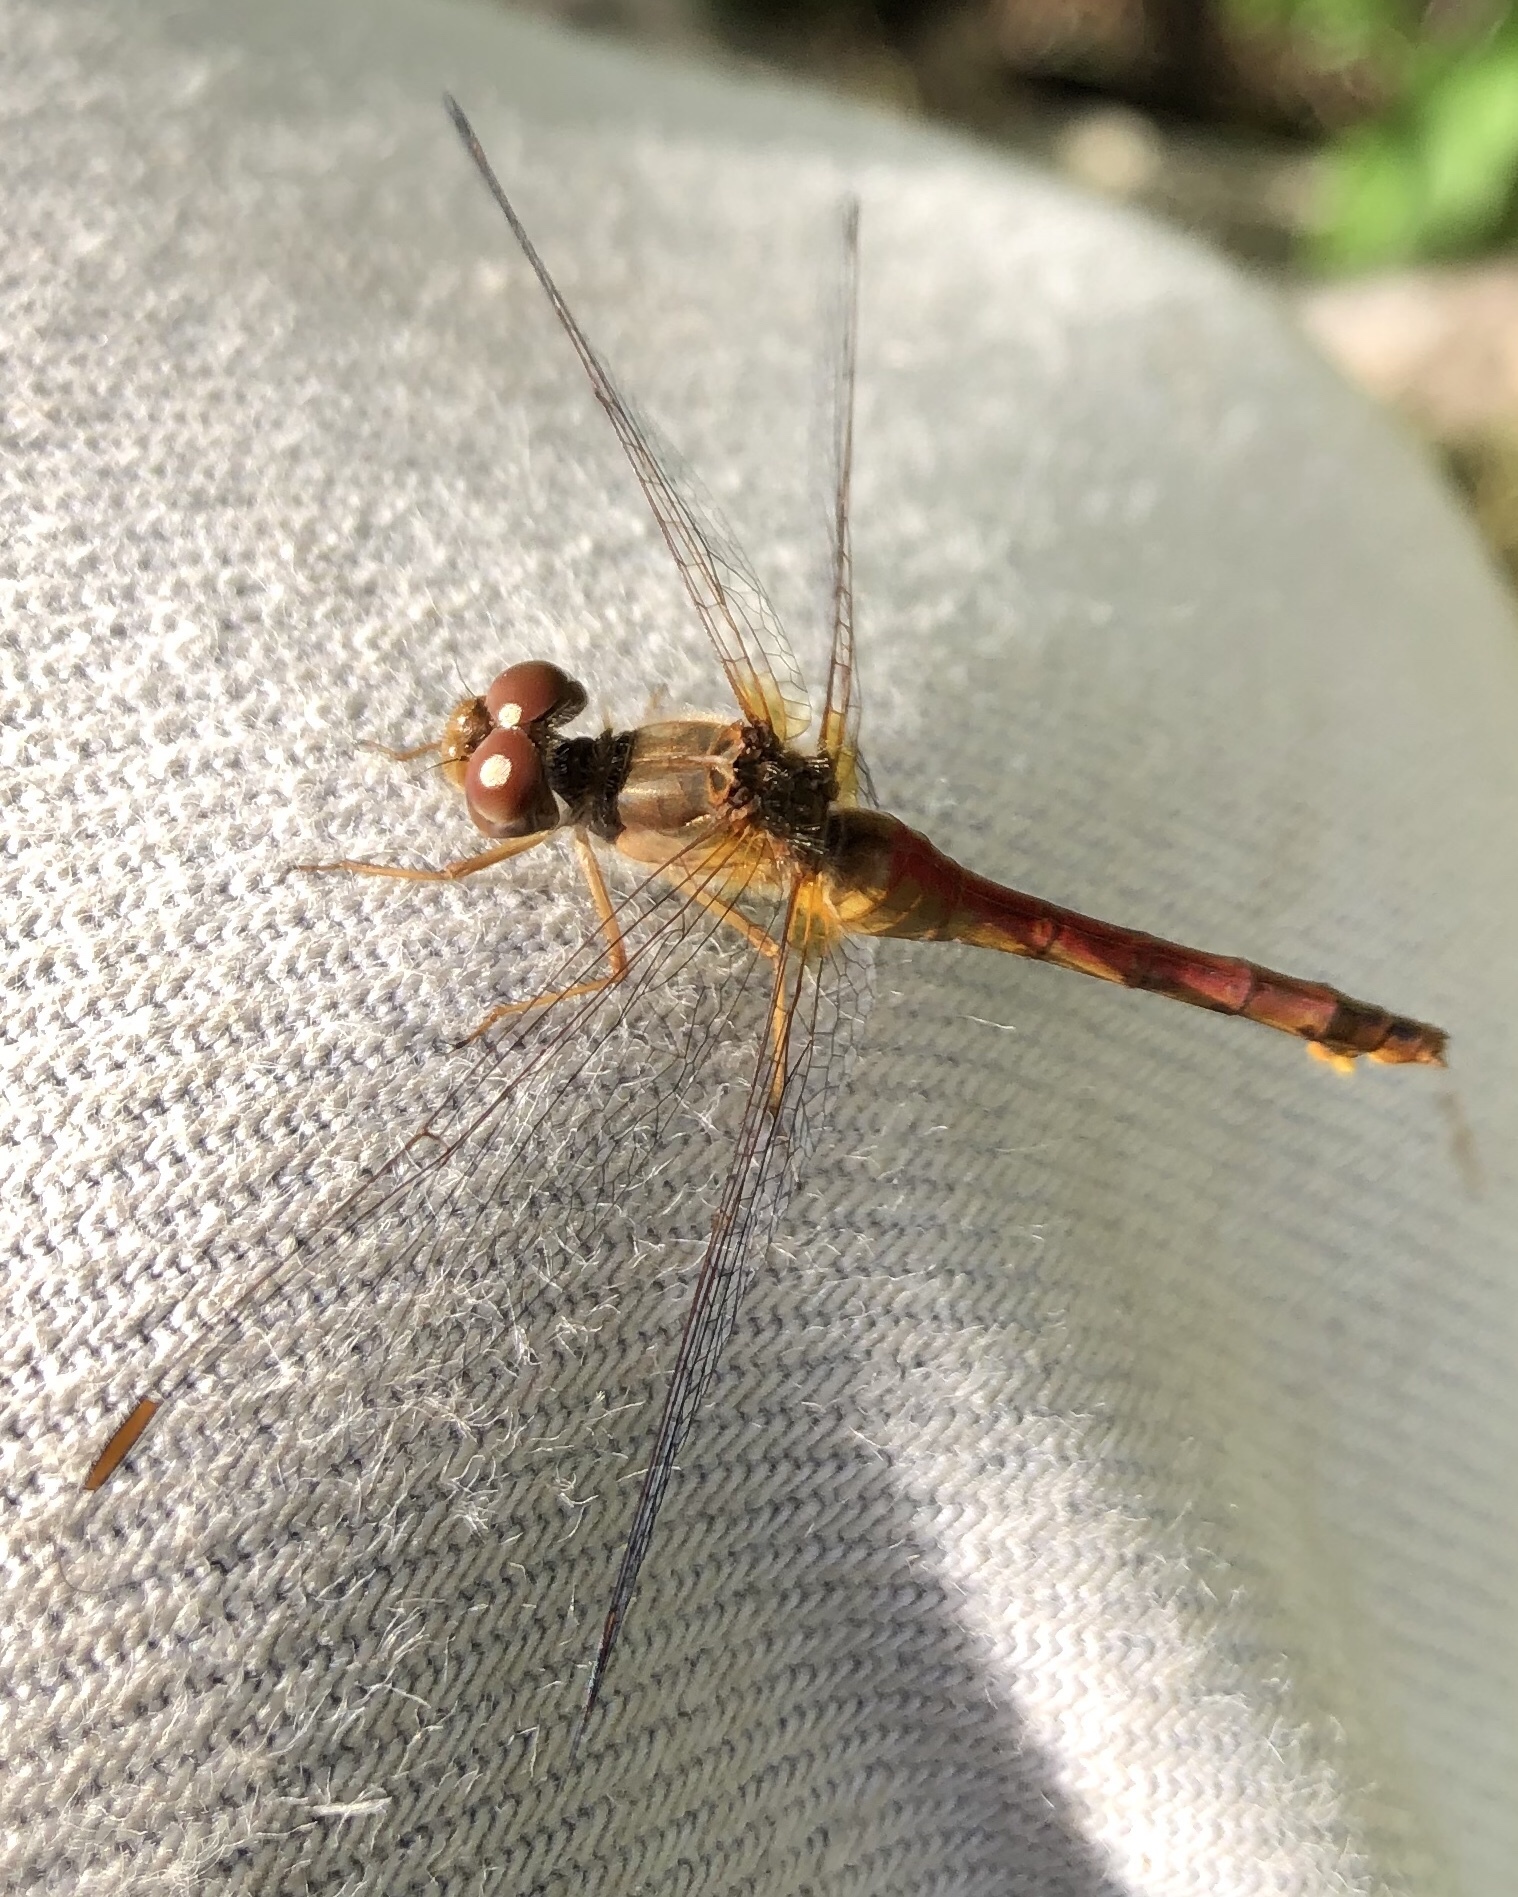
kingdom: Animalia
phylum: Arthropoda
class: Insecta
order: Odonata
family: Libellulidae
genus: Sympetrum
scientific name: Sympetrum vicinum
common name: Autumn meadowhawk
